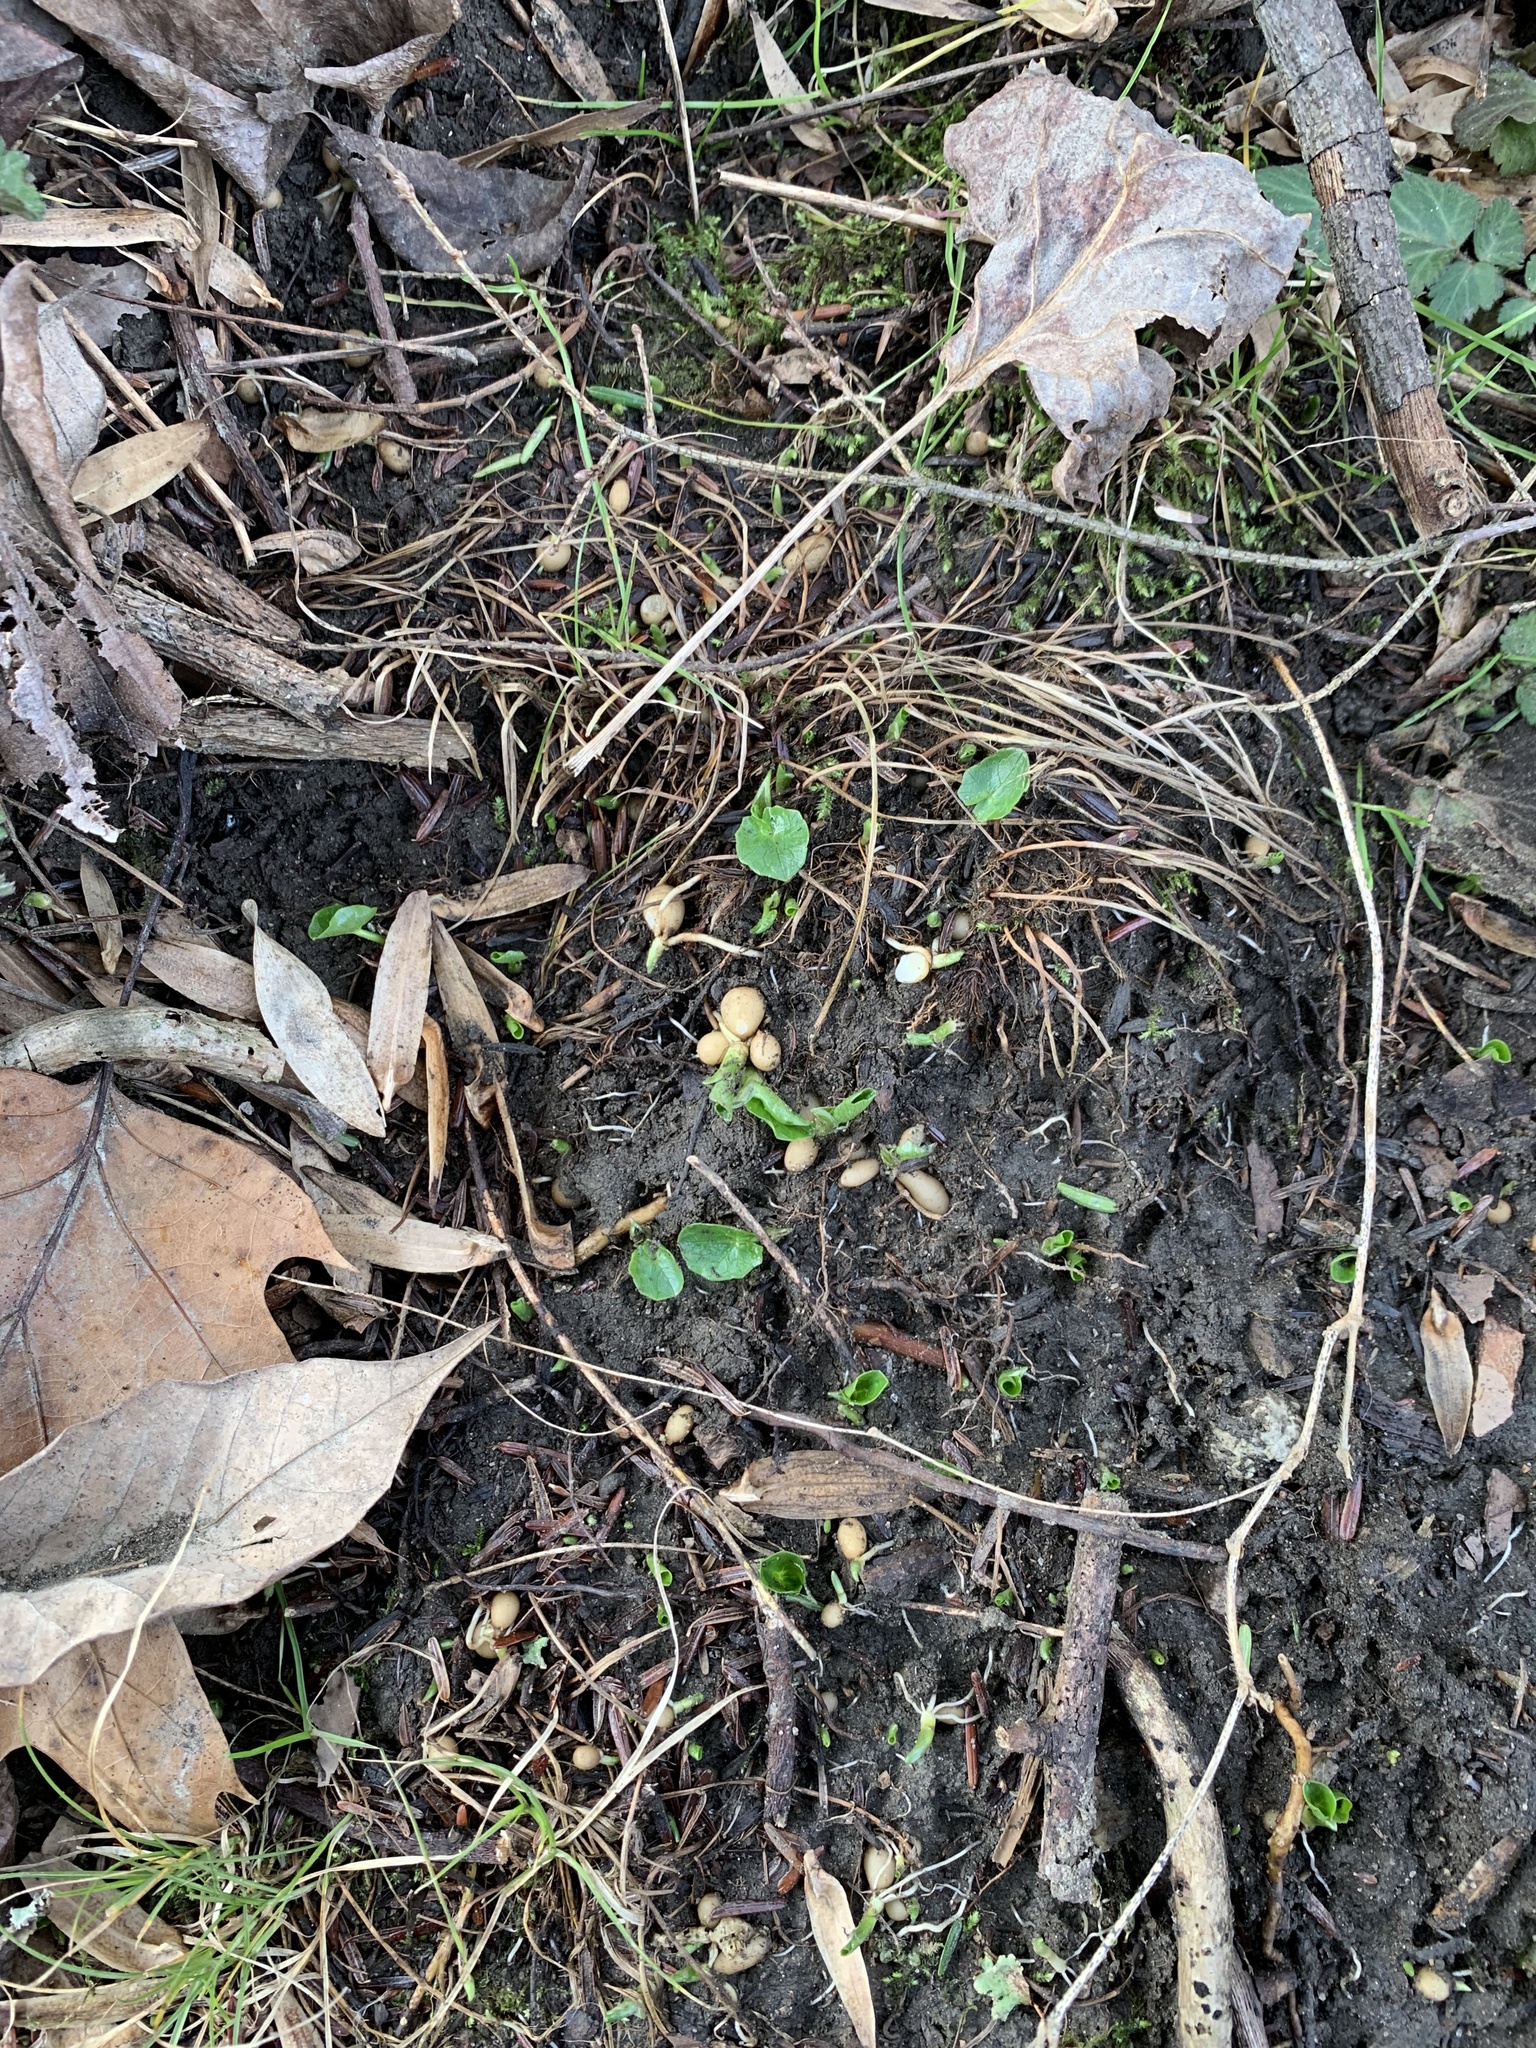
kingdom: Plantae
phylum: Tracheophyta
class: Magnoliopsida
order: Ranunculales
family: Ranunculaceae
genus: Ficaria
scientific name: Ficaria verna
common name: Lesser celandine
